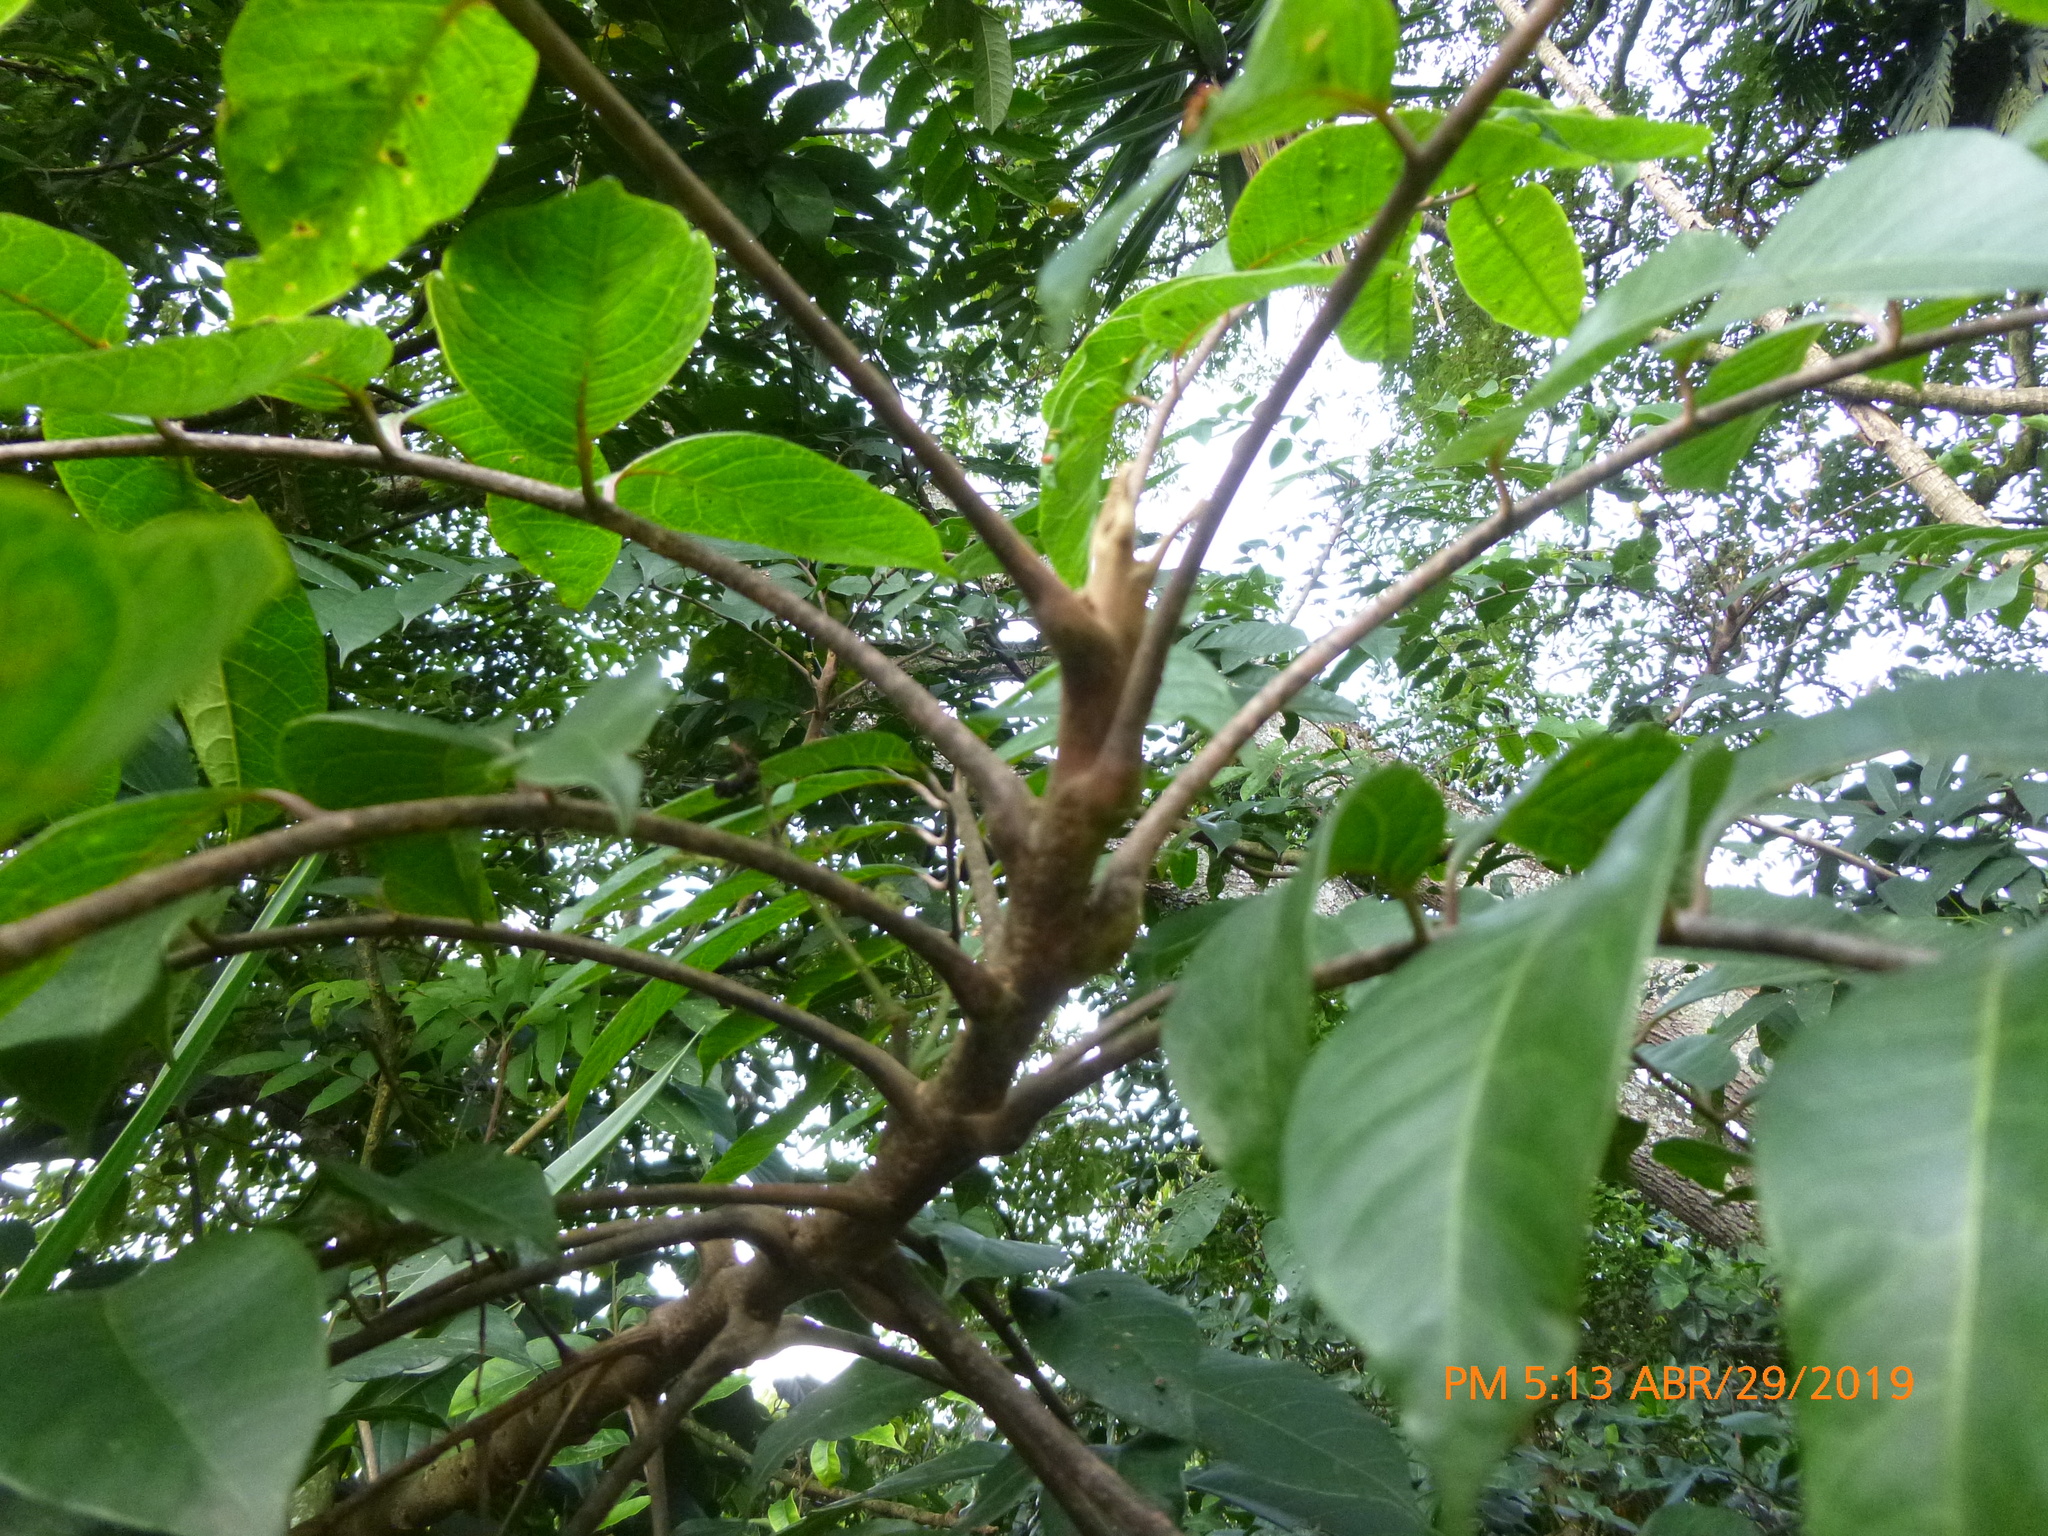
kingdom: Plantae
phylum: Tracheophyta
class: Magnoliopsida
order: Sapindales
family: Anacardiaceae
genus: Toxicodendron
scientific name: Toxicodendron striatum
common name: Sumac
